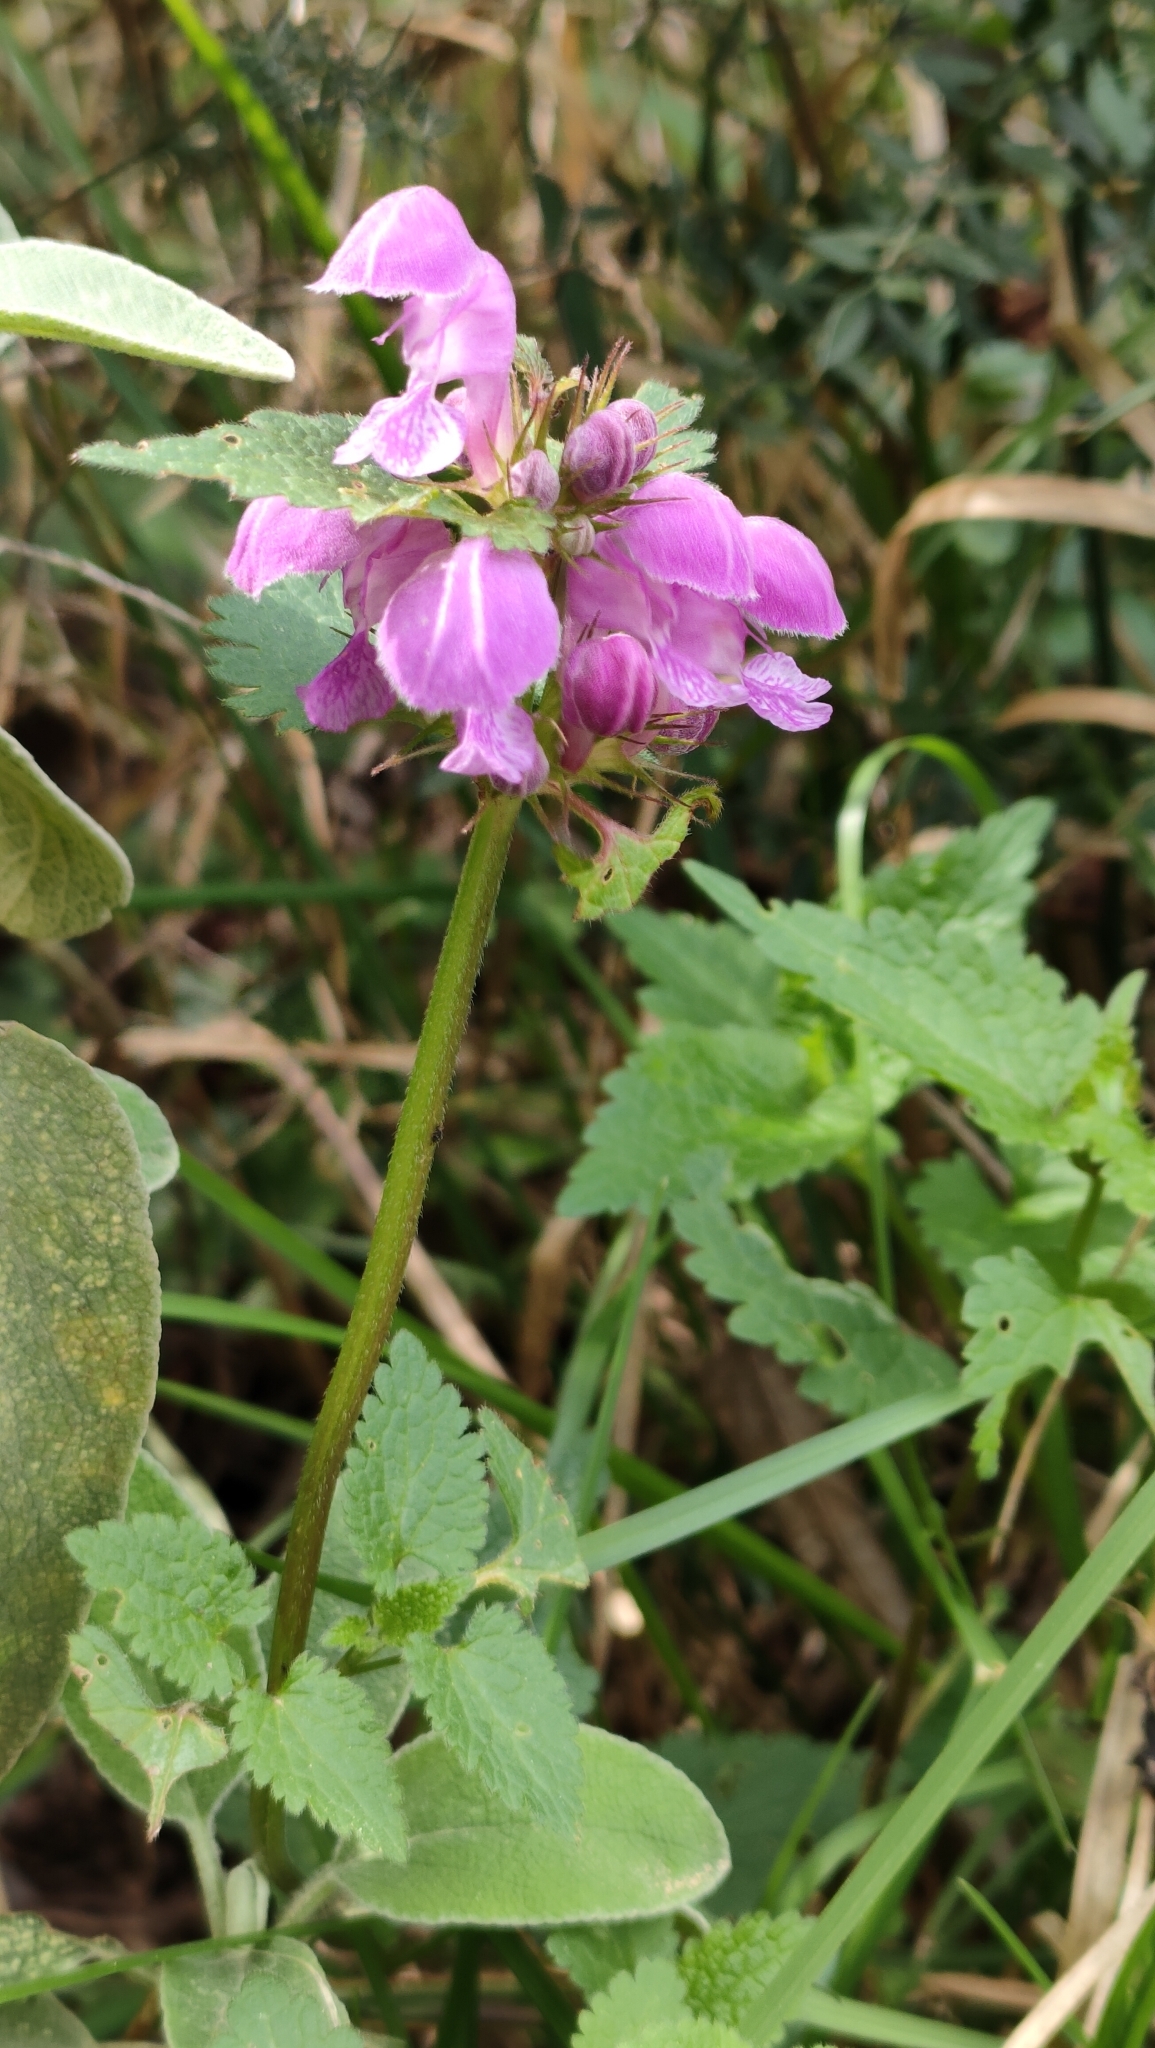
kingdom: Plantae
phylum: Tracheophyta
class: Magnoliopsida
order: Lamiales
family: Lamiaceae
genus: Lamium
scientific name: Lamium maculatum
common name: Spotted dead-nettle
